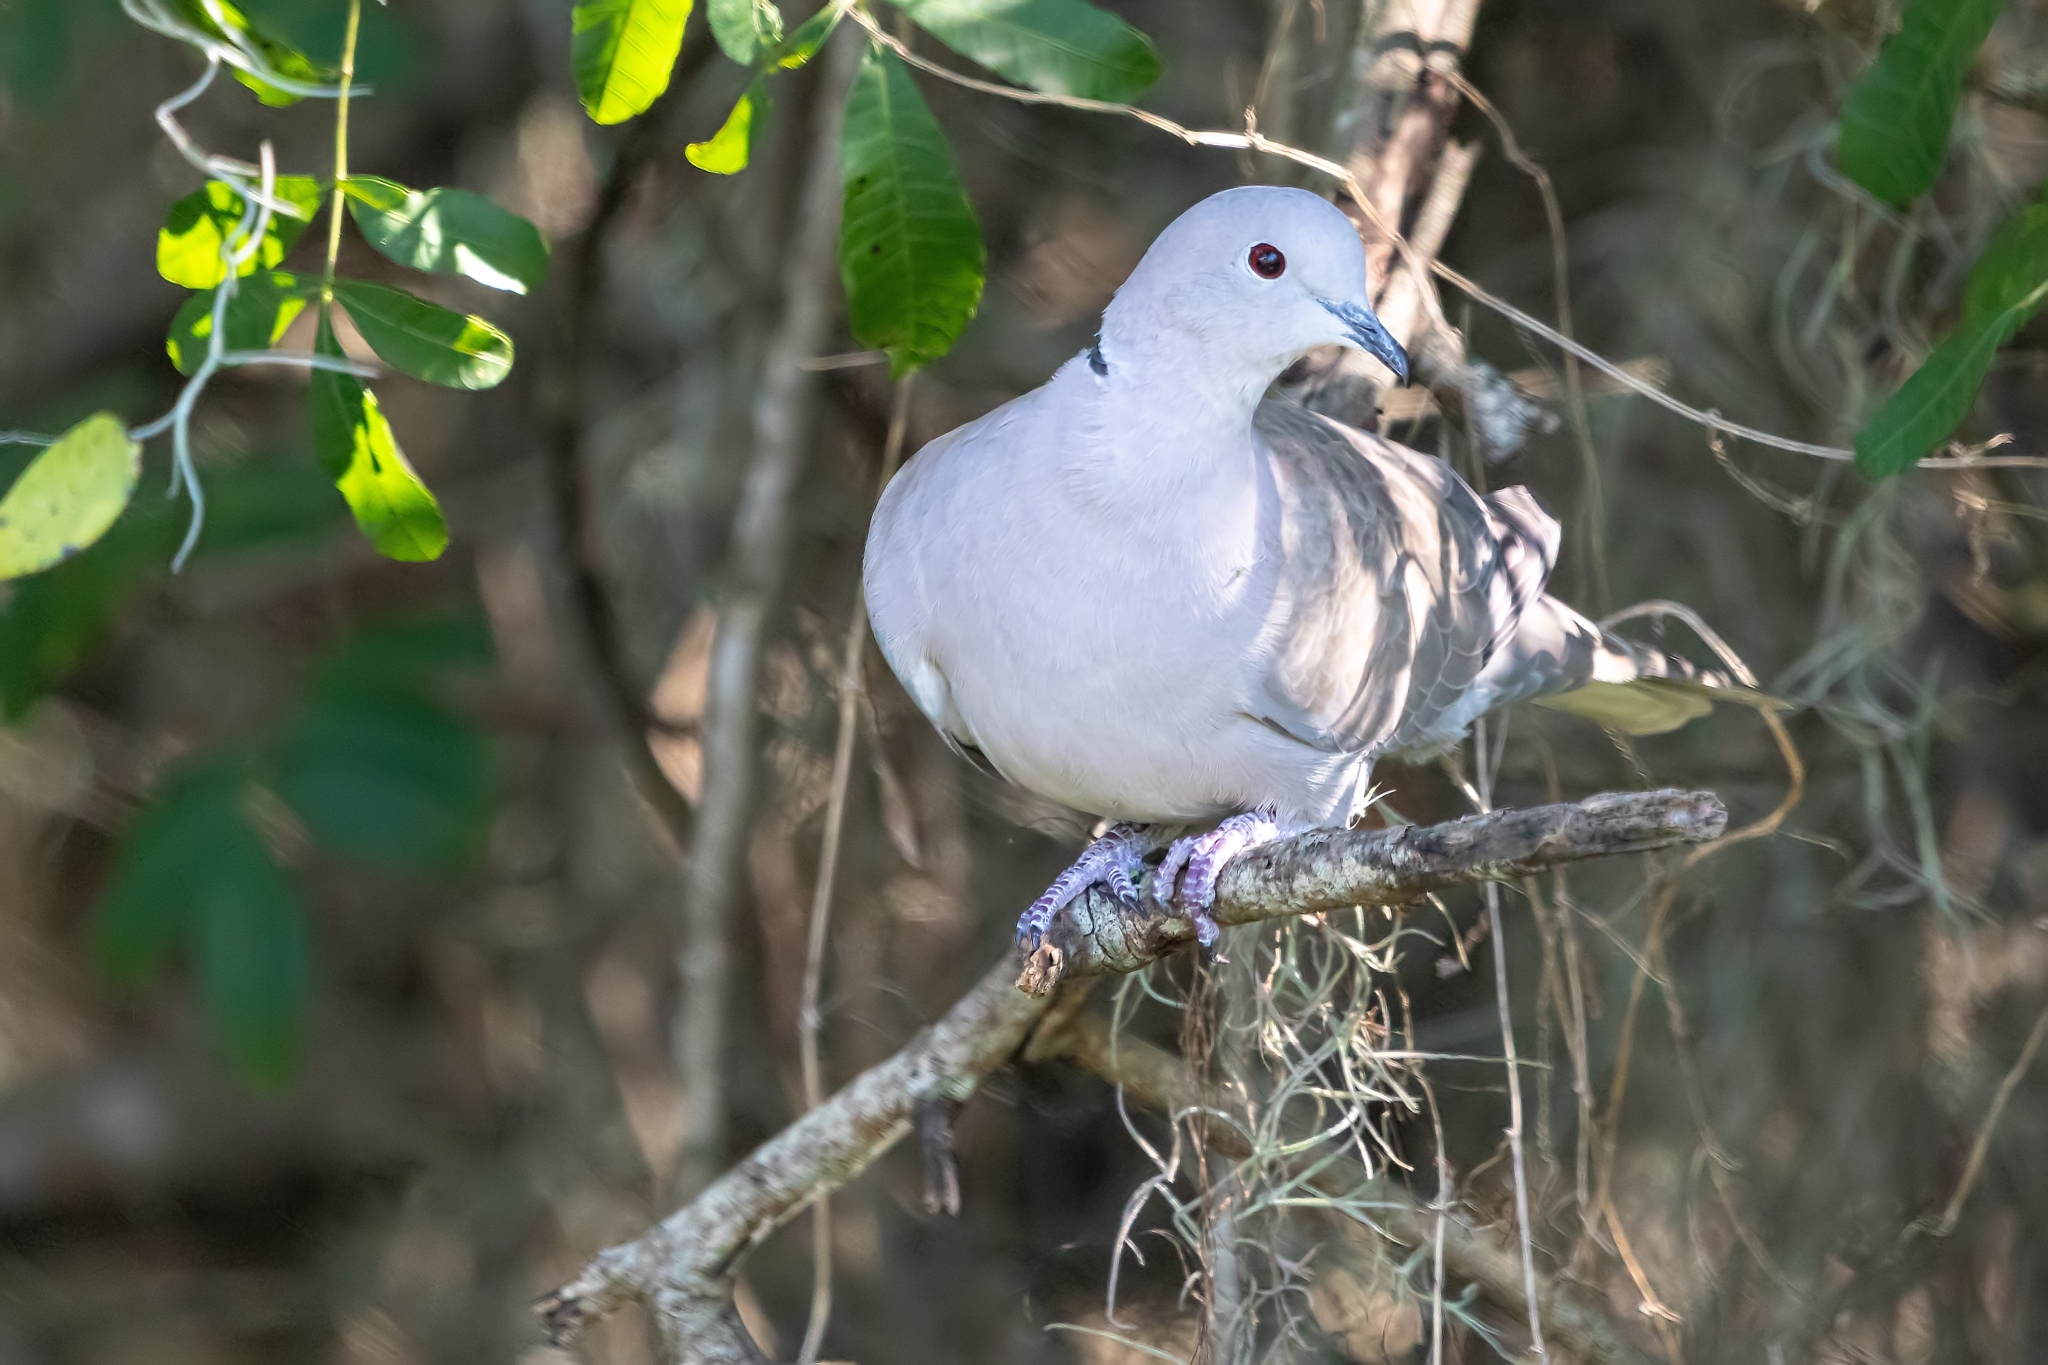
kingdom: Animalia
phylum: Chordata
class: Aves
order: Columbiformes
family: Columbidae
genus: Streptopelia
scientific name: Streptopelia decaocto
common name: Eurasian collared dove
